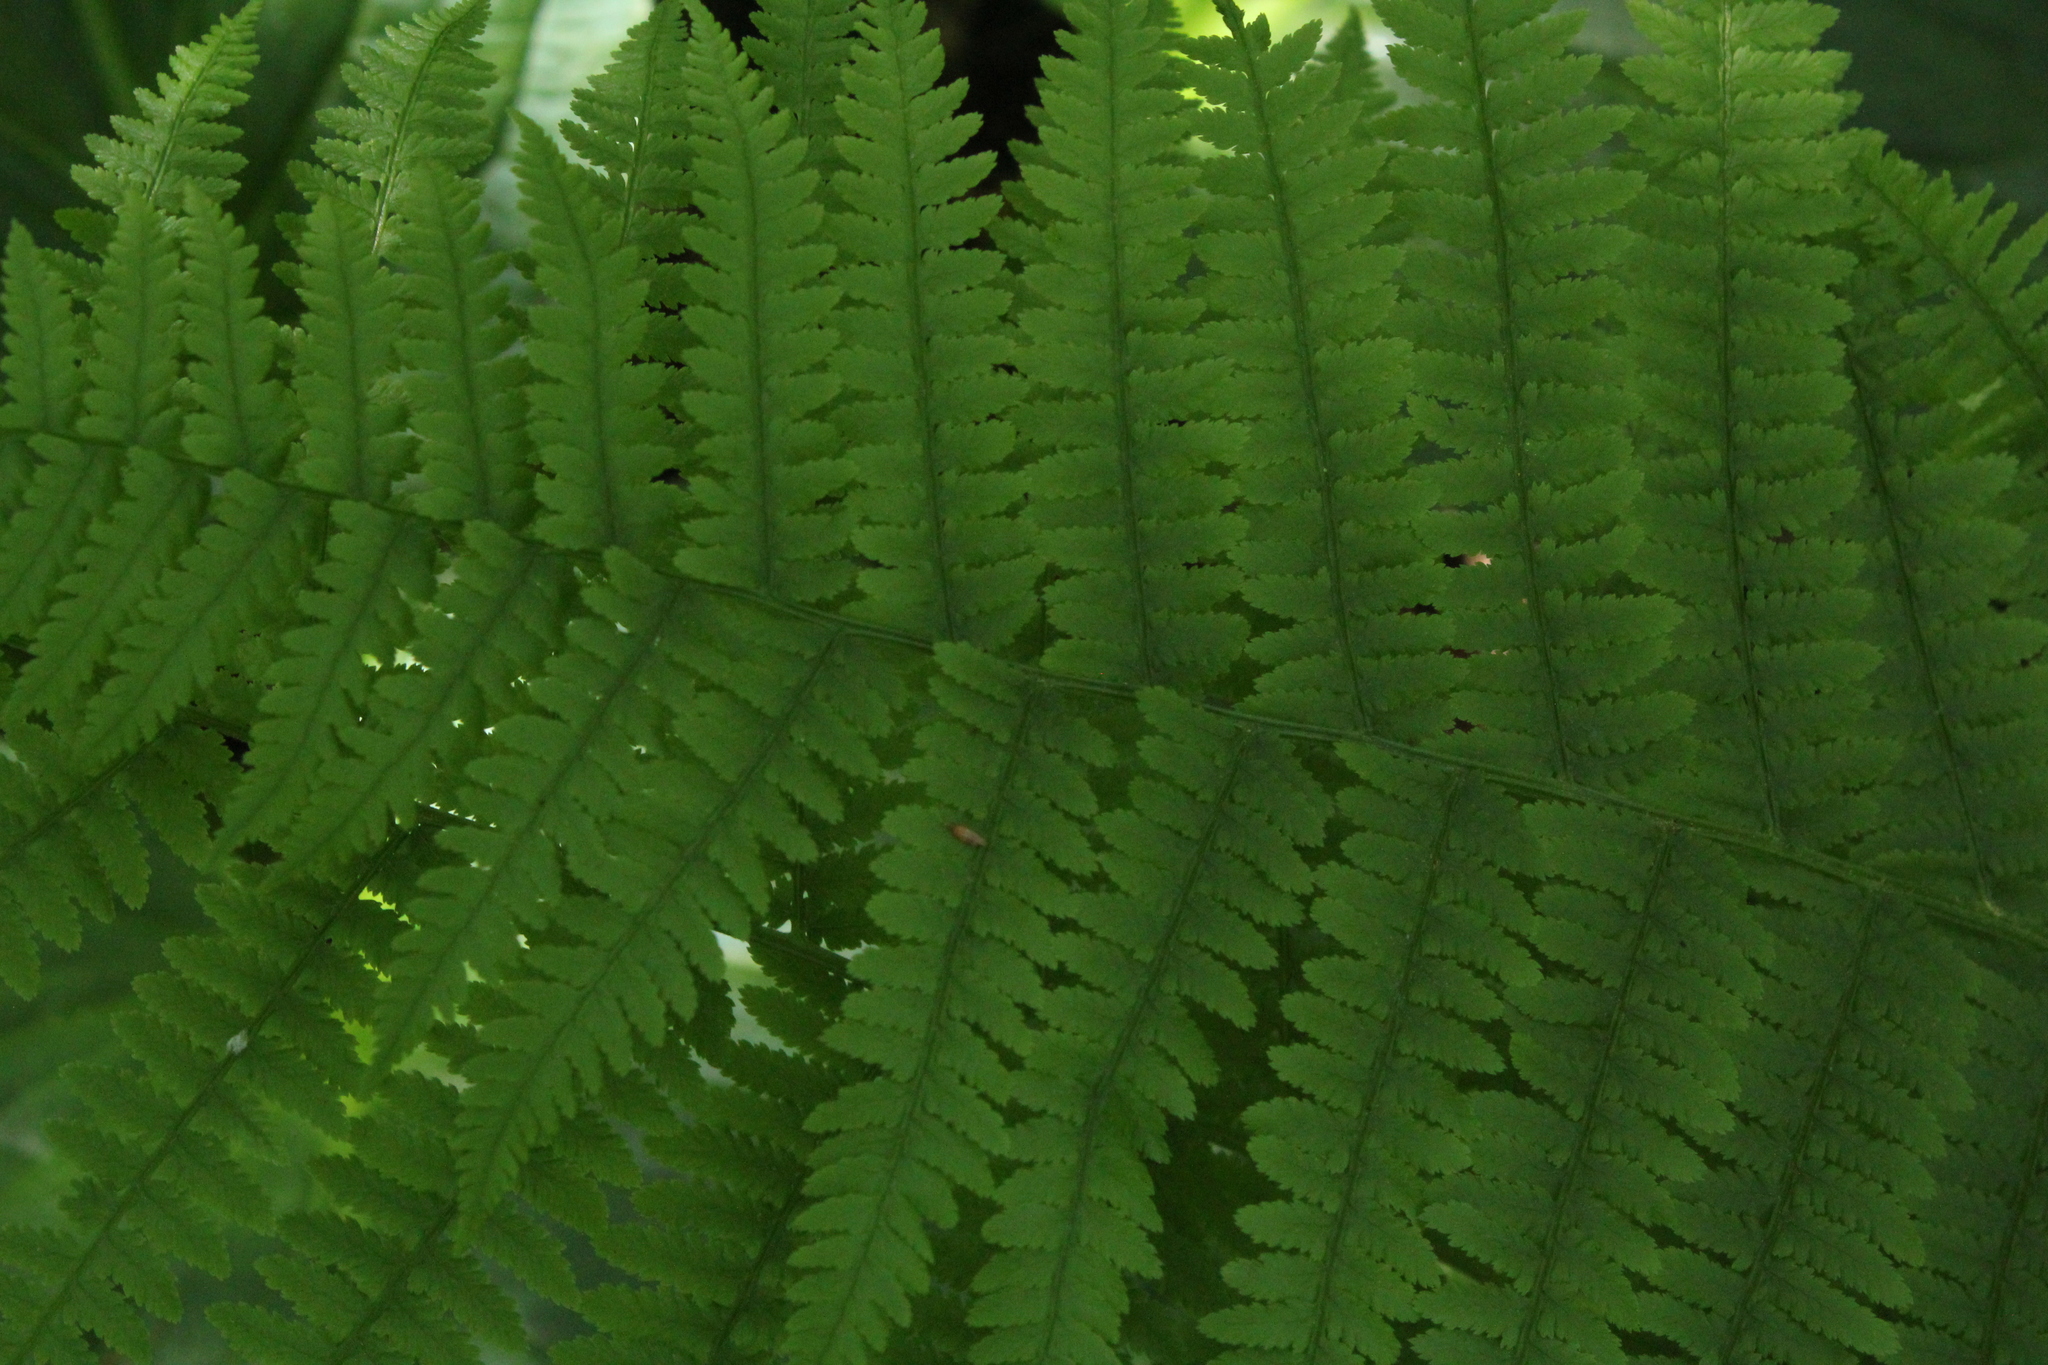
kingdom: Plantae
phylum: Tracheophyta
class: Polypodiopsida
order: Polypodiales
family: Athyriaceae
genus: Athyrium
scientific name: Athyrium angustum
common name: Northern lady fern
